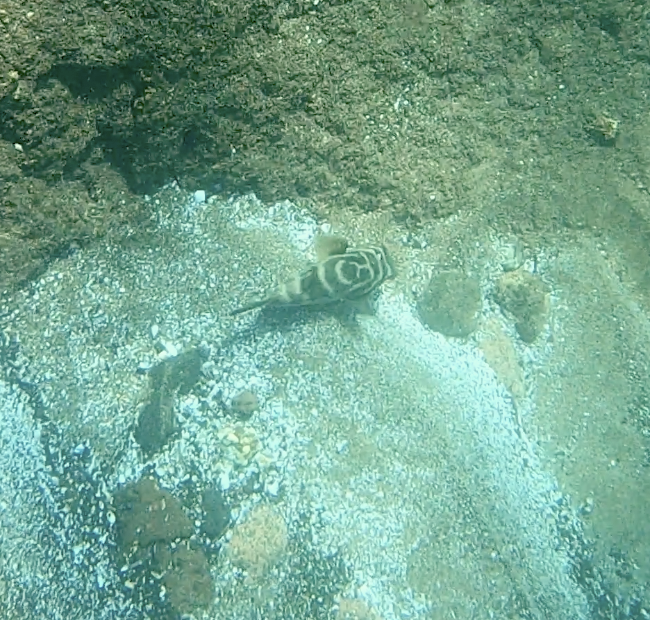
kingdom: Animalia
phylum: Chordata
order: Tetraodontiformes
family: Tetraodontidae
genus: Sphoeroides
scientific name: Sphoeroides annulatus
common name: Bullseye puffer
